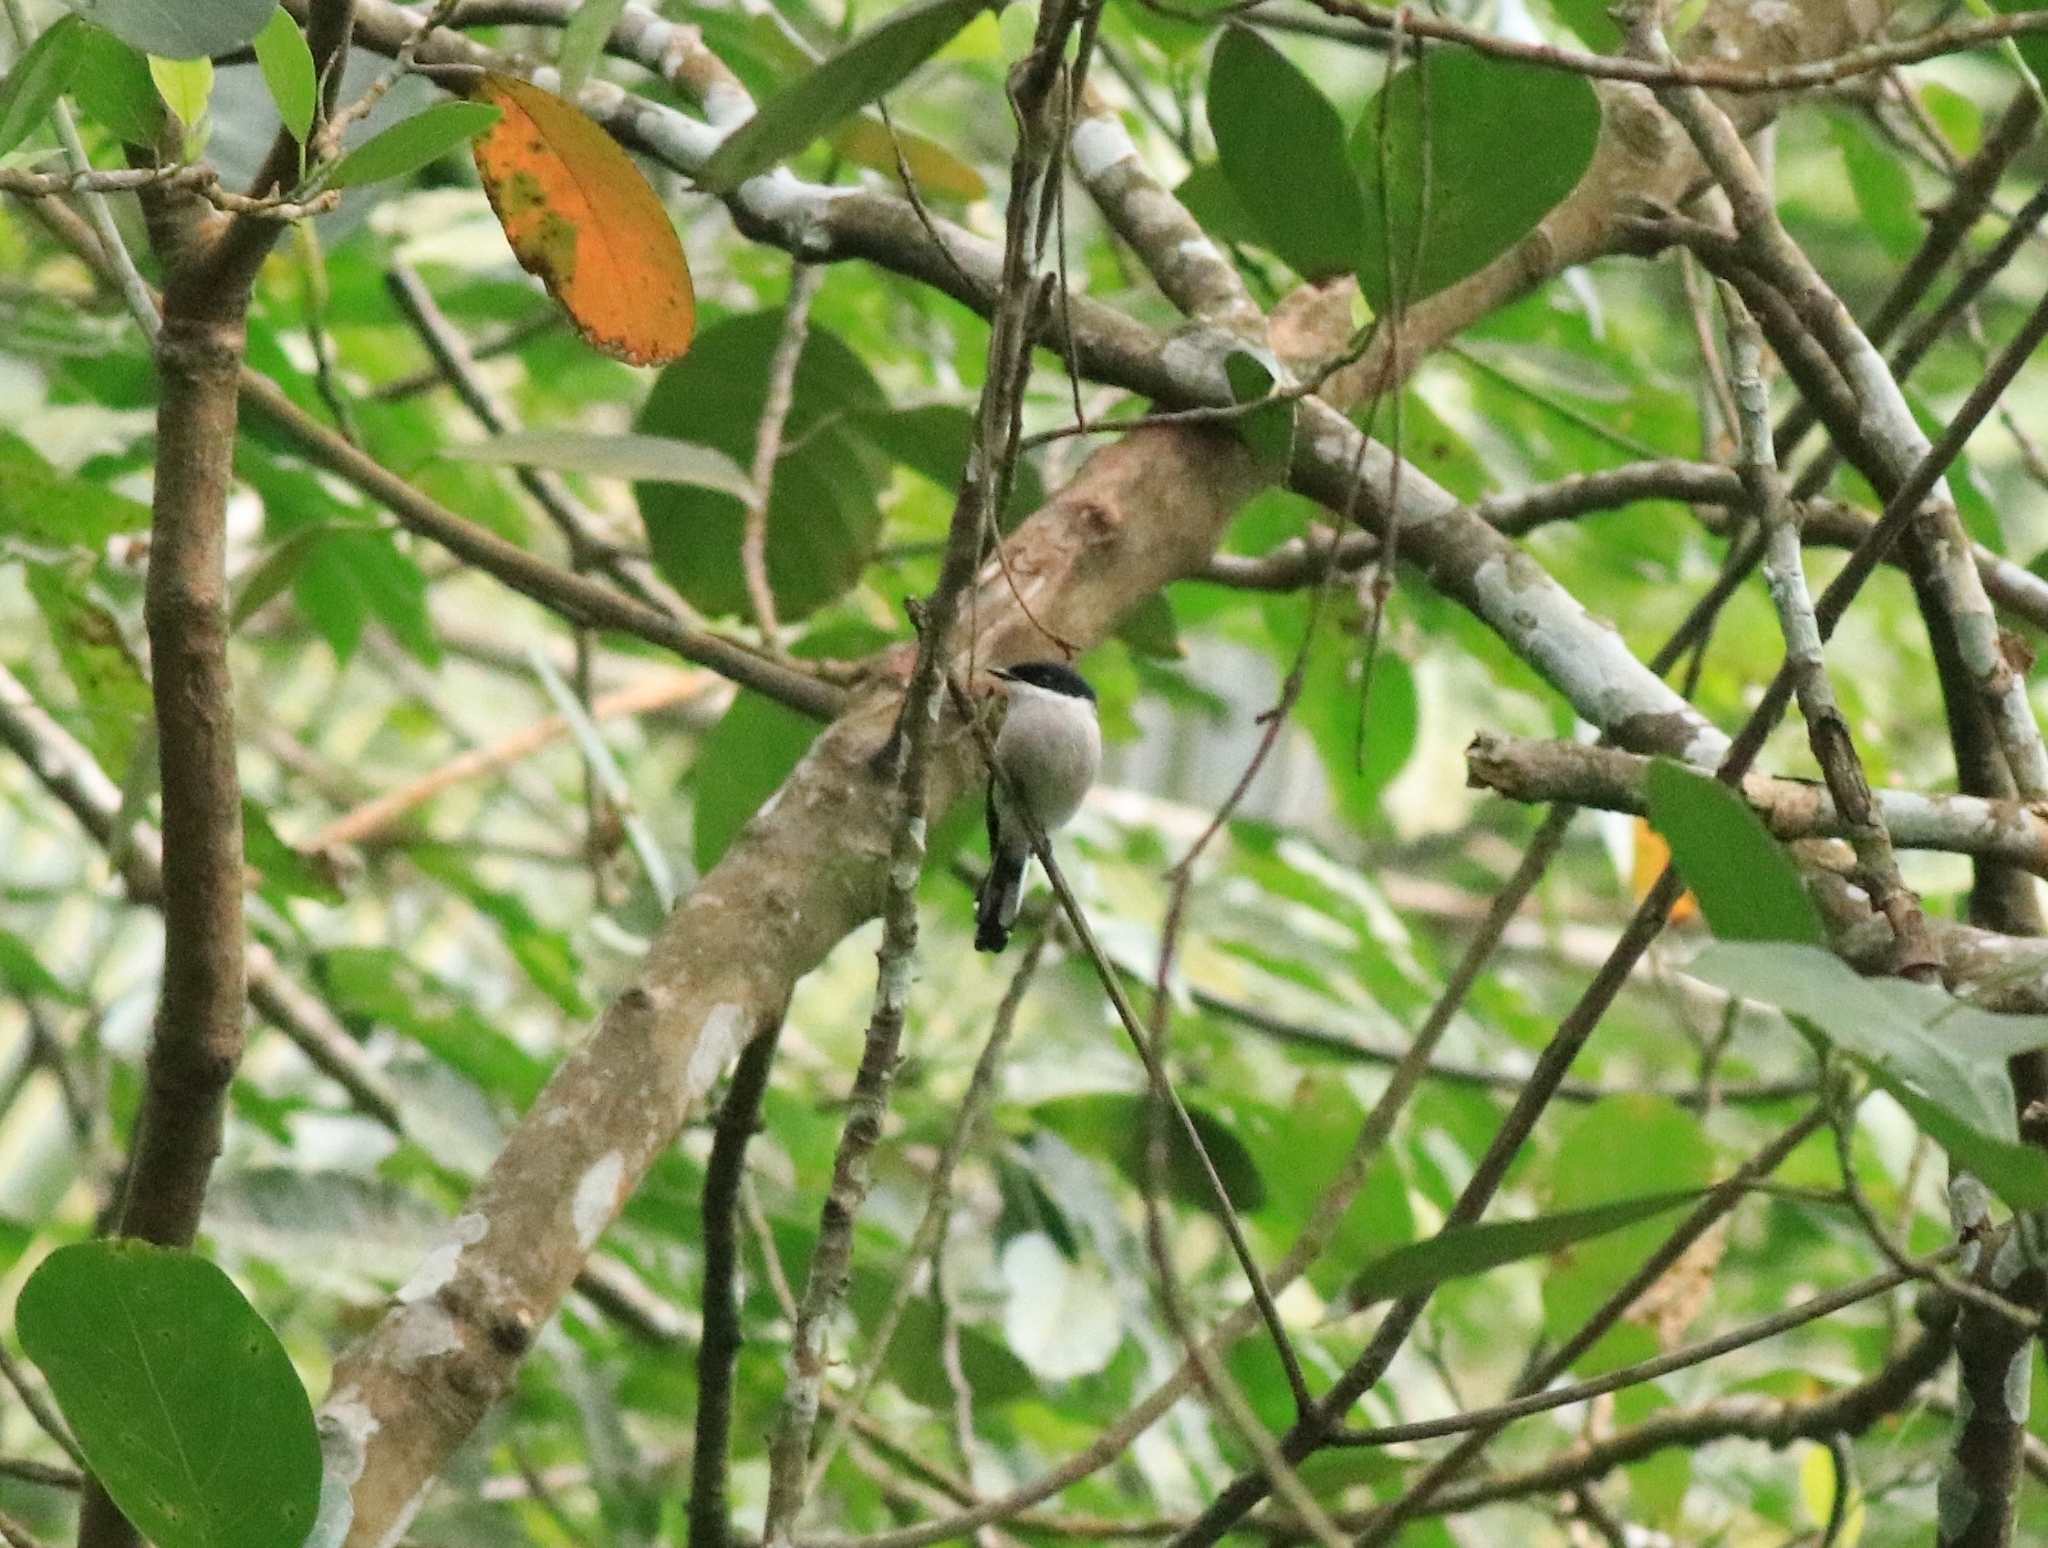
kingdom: Animalia
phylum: Chordata
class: Aves
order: Passeriformes
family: Tephrodornithidae
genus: Hemipus
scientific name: Hemipus picatus
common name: Bar-winged flycatcher-shrike
